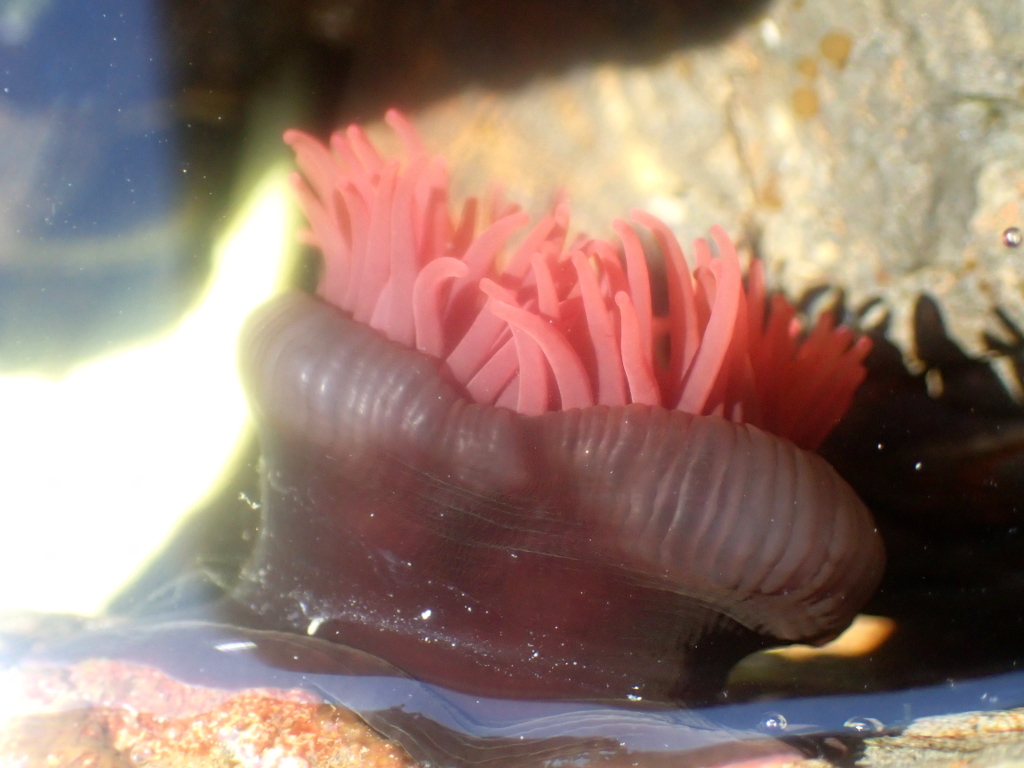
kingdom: Animalia
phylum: Cnidaria
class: Anthozoa
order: Actiniaria
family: Actiniidae
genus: Actinia
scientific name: Actinia tenebrosa
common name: Waratah anemone
